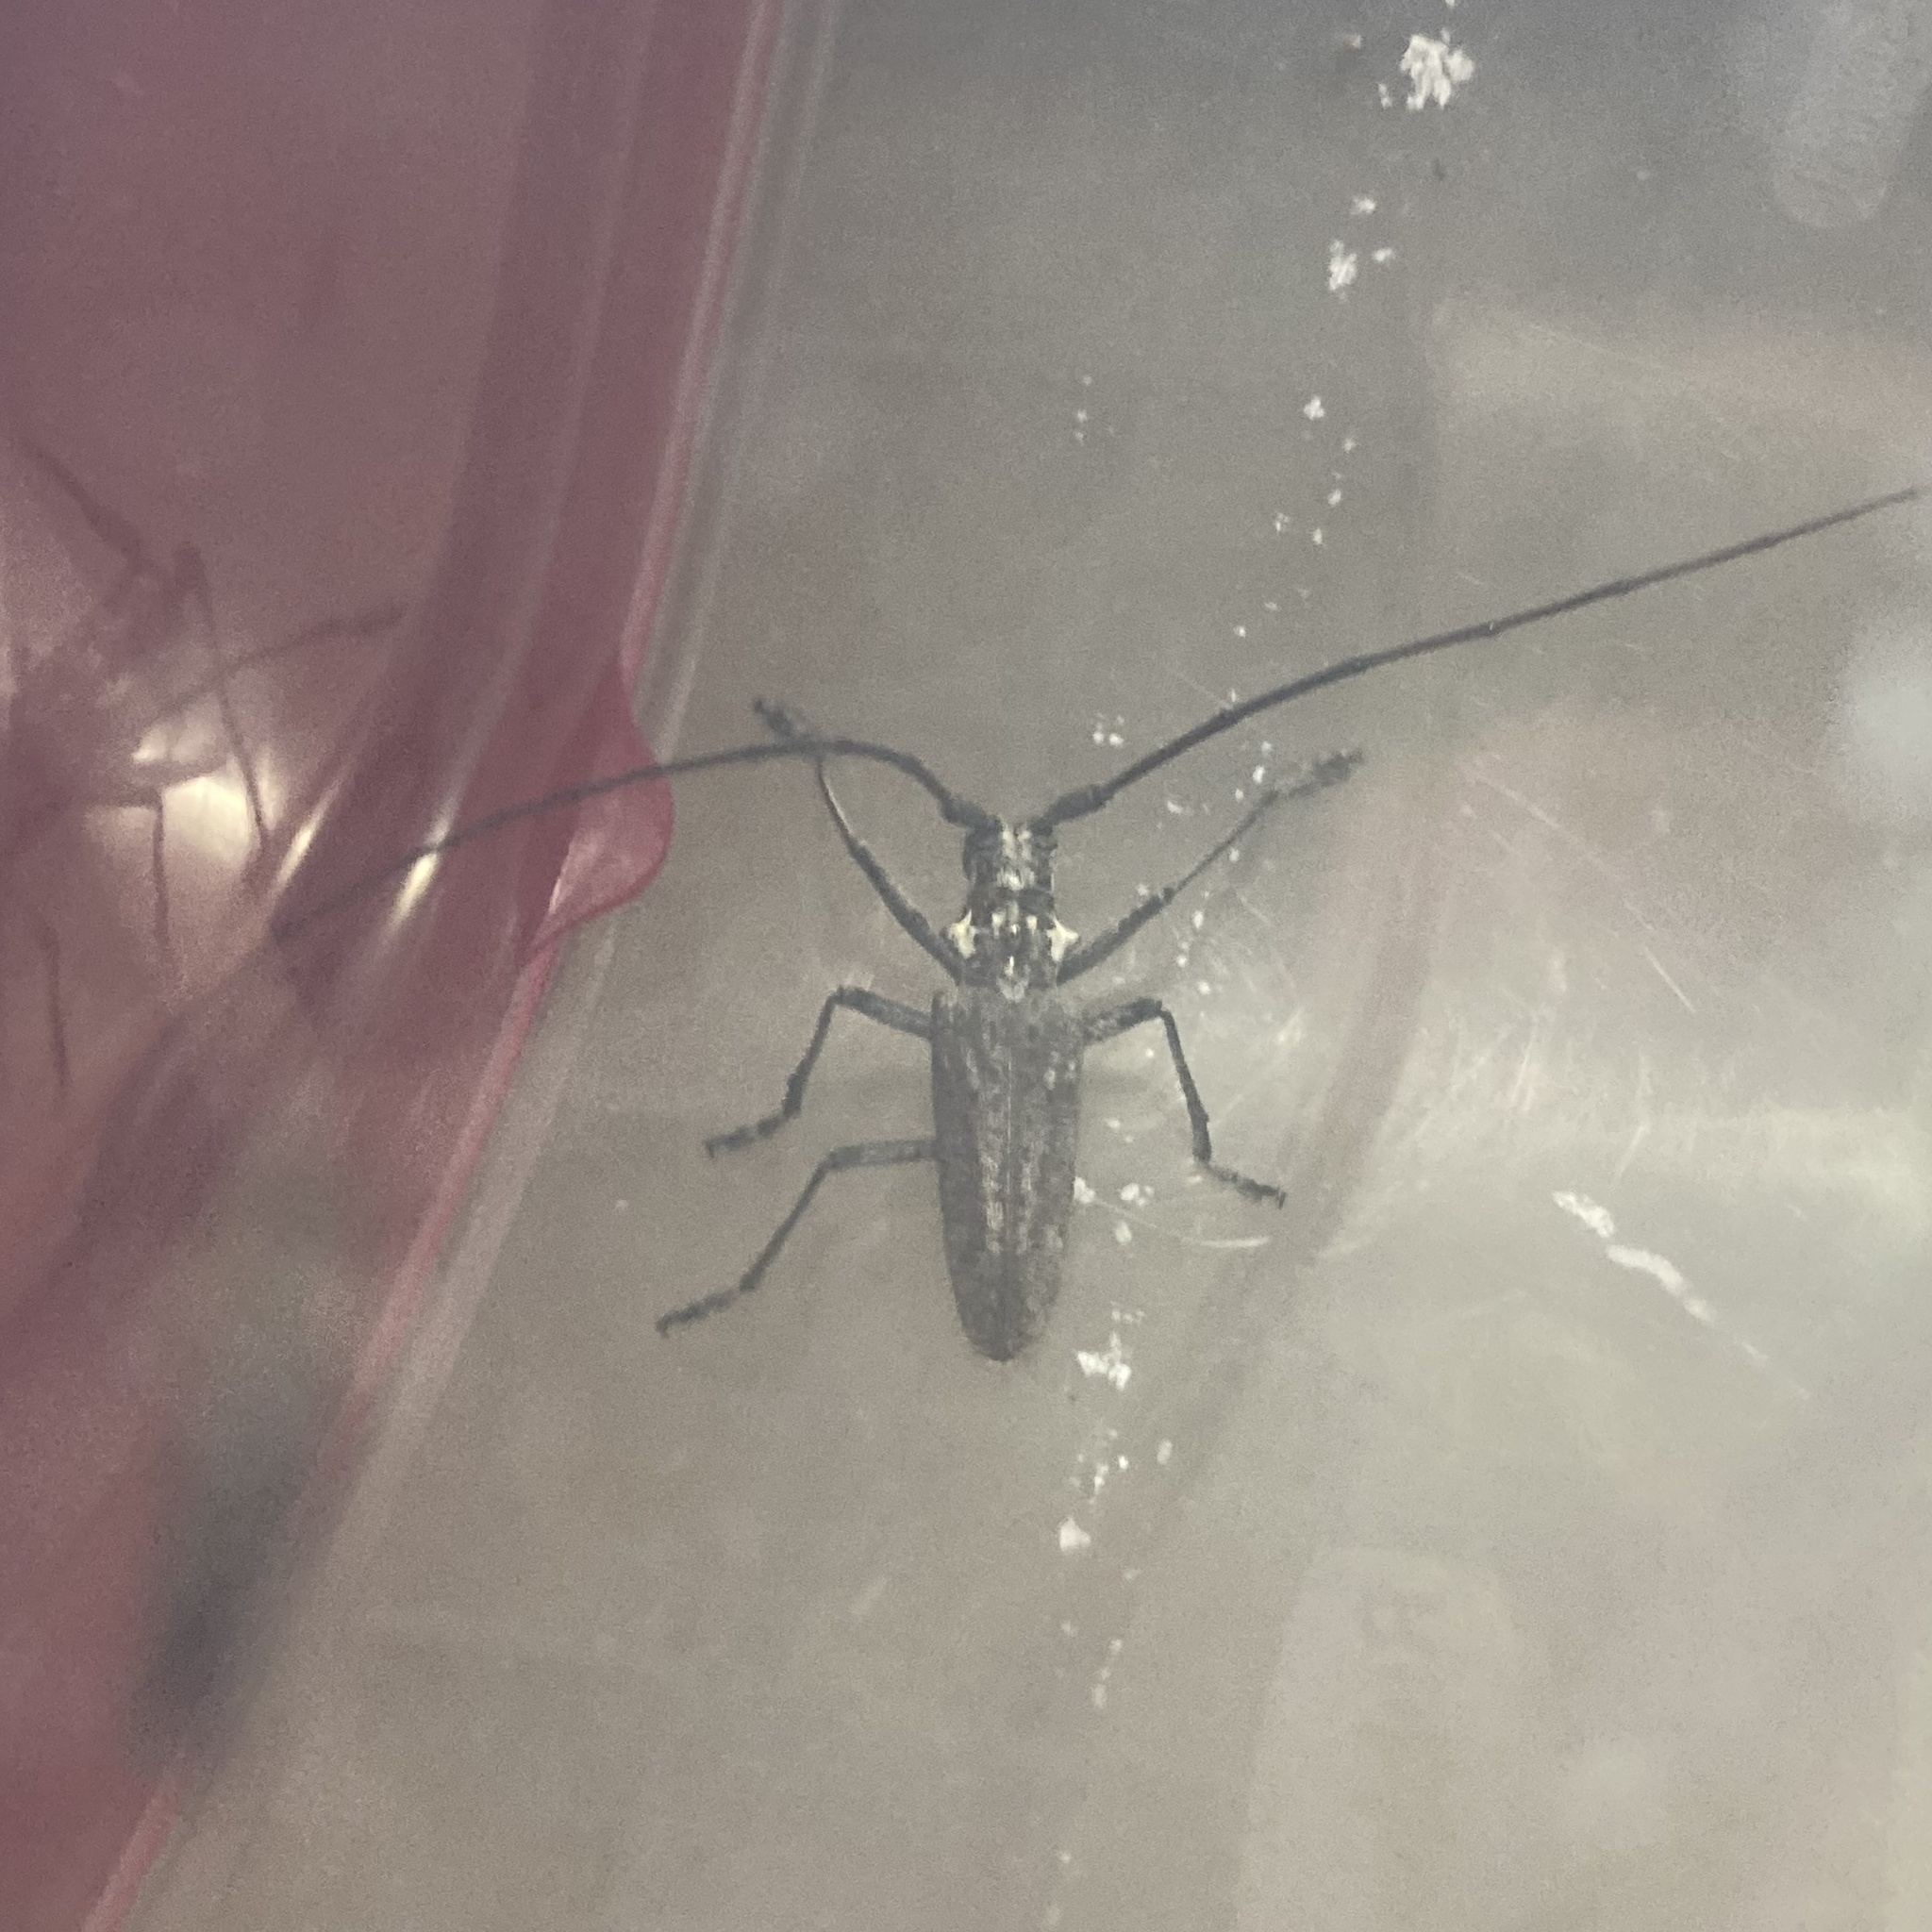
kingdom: Animalia
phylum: Arthropoda
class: Insecta
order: Coleoptera
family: Cerambycidae
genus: Monochamus
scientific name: Monochamus notatus
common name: Northeastern pine sawyer beetle
